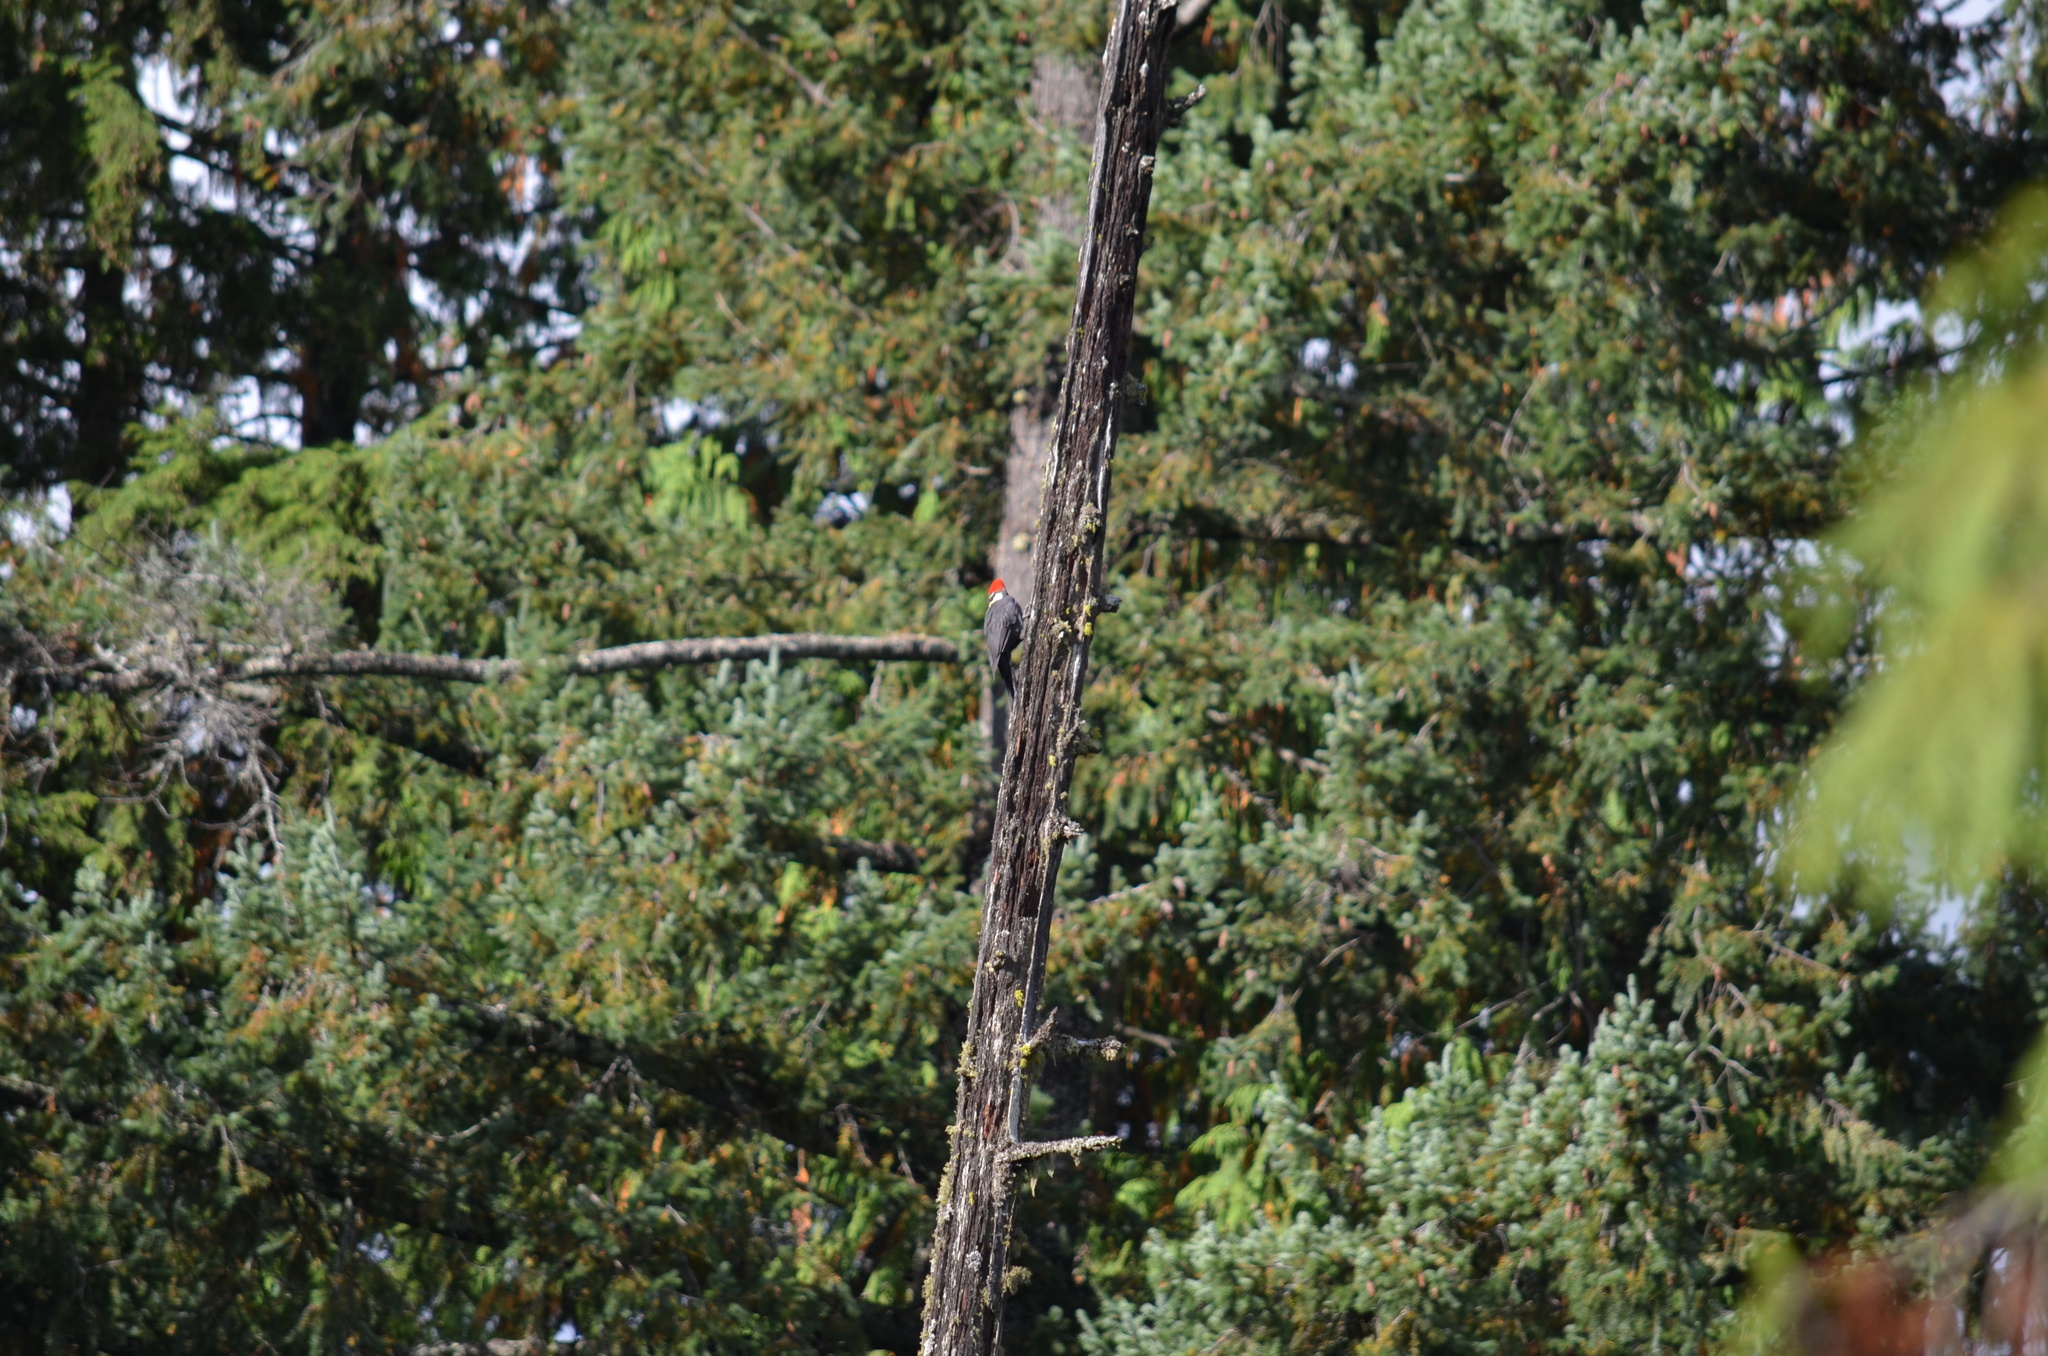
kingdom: Animalia
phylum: Chordata
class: Aves
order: Piciformes
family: Picidae
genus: Dryocopus
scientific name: Dryocopus pileatus
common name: Pileated woodpecker
